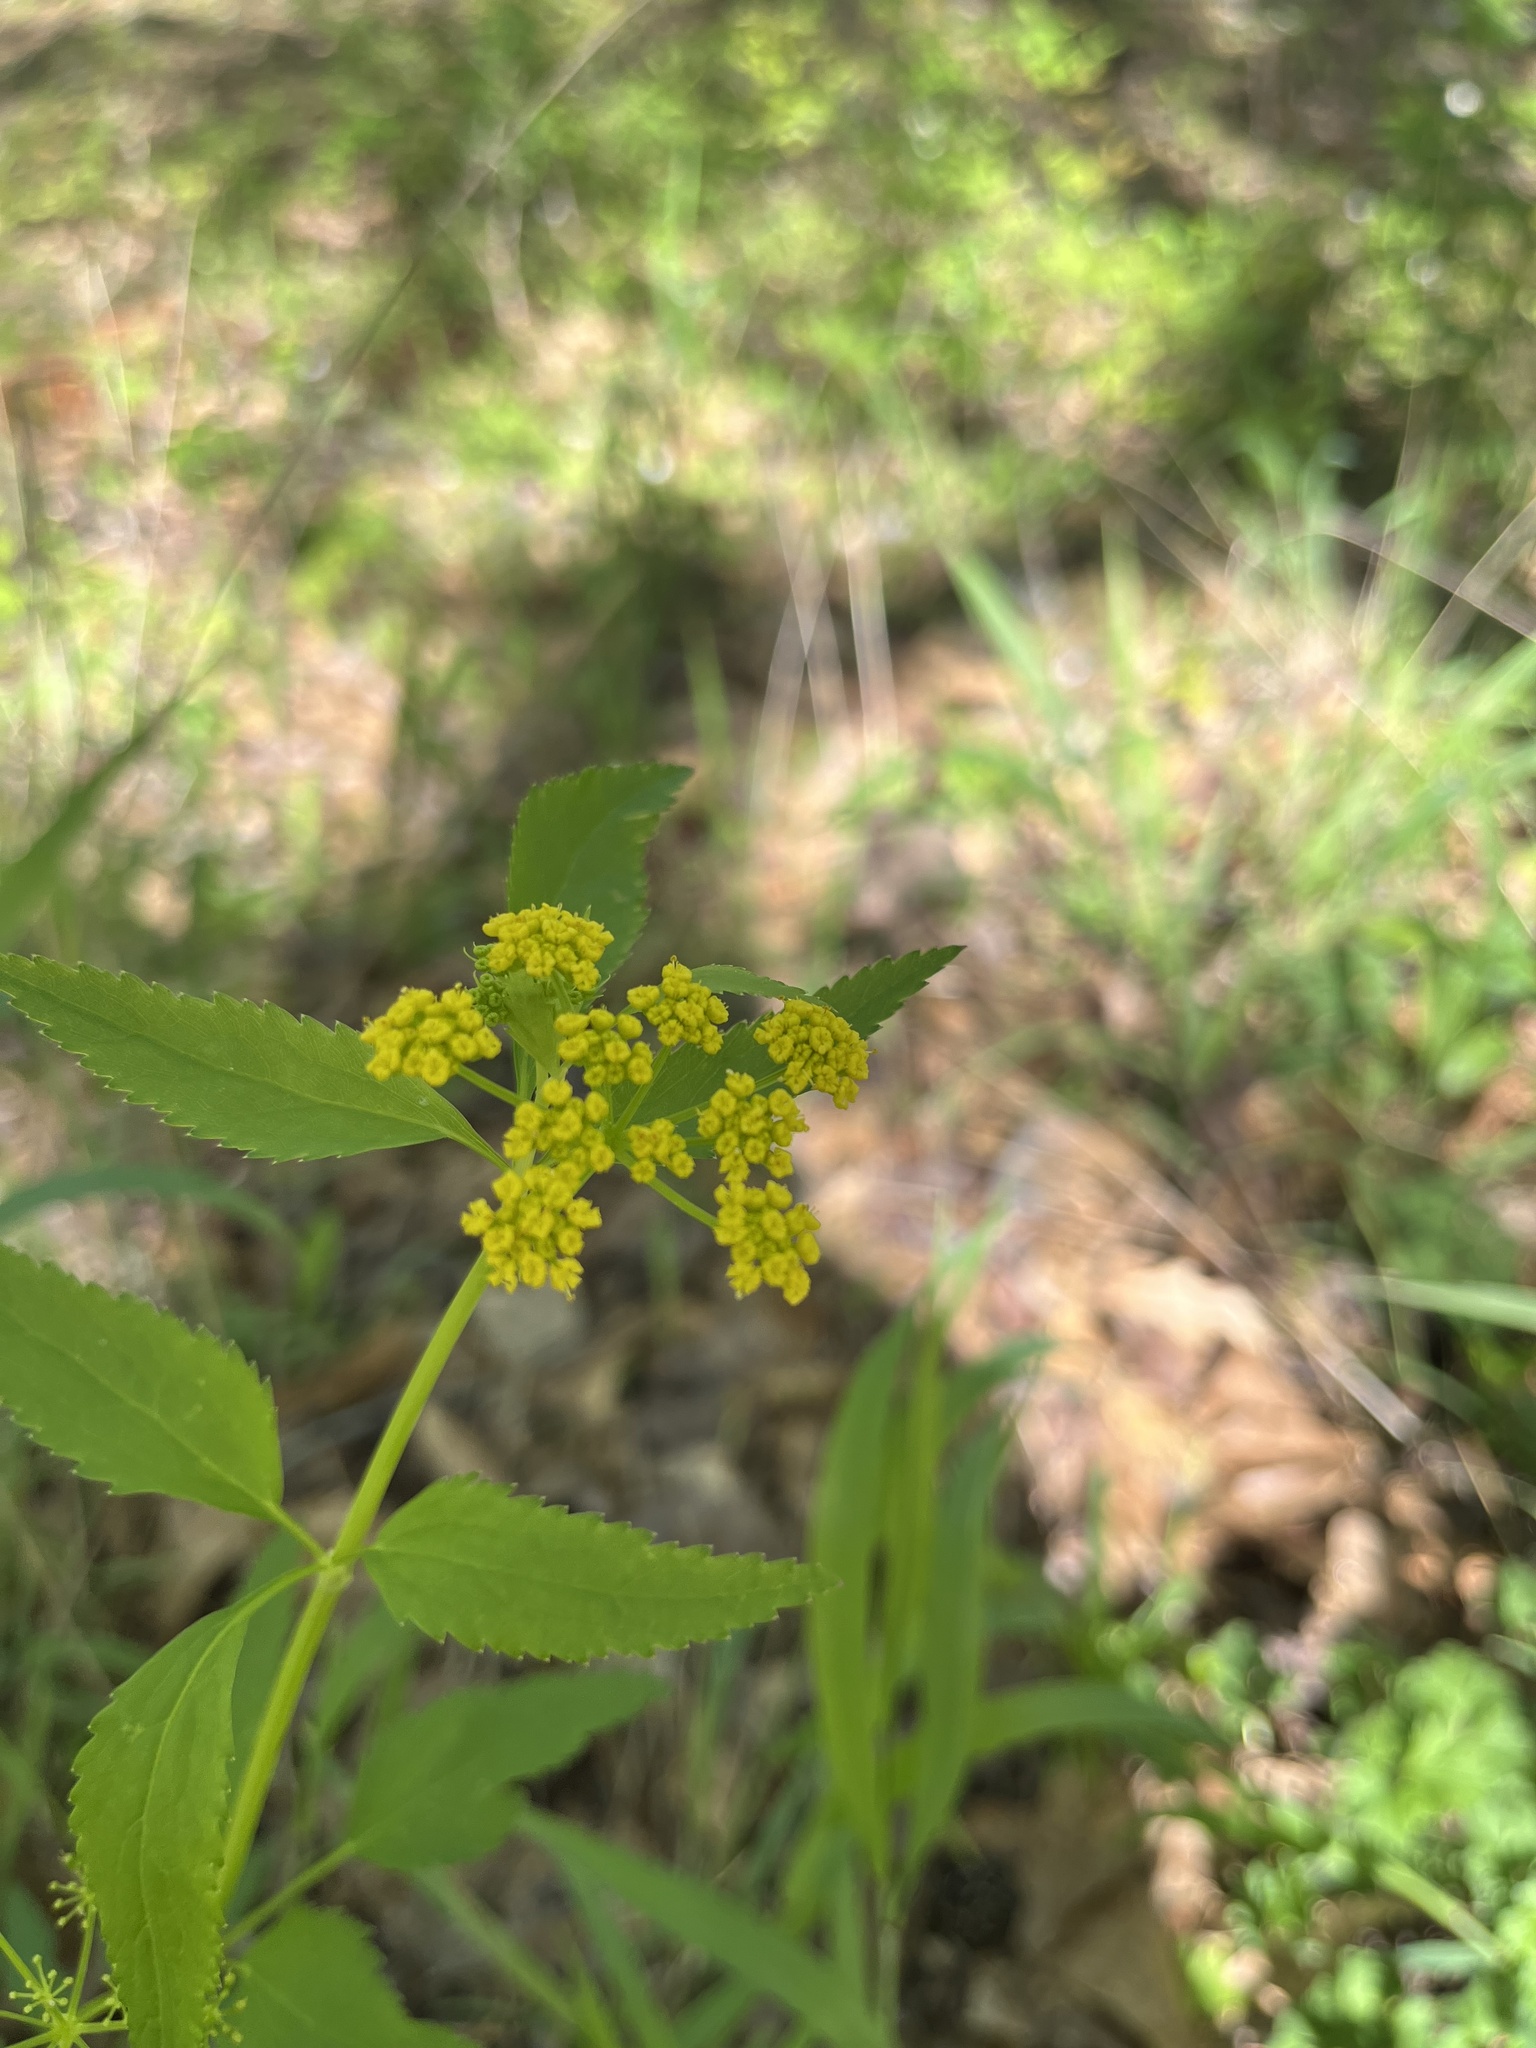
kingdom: Plantae
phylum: Tracheophyta
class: Magnoliopsida
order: Apiales
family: Apiaceae
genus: Zizia
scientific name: Zizia aurea
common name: Golden alexanders
